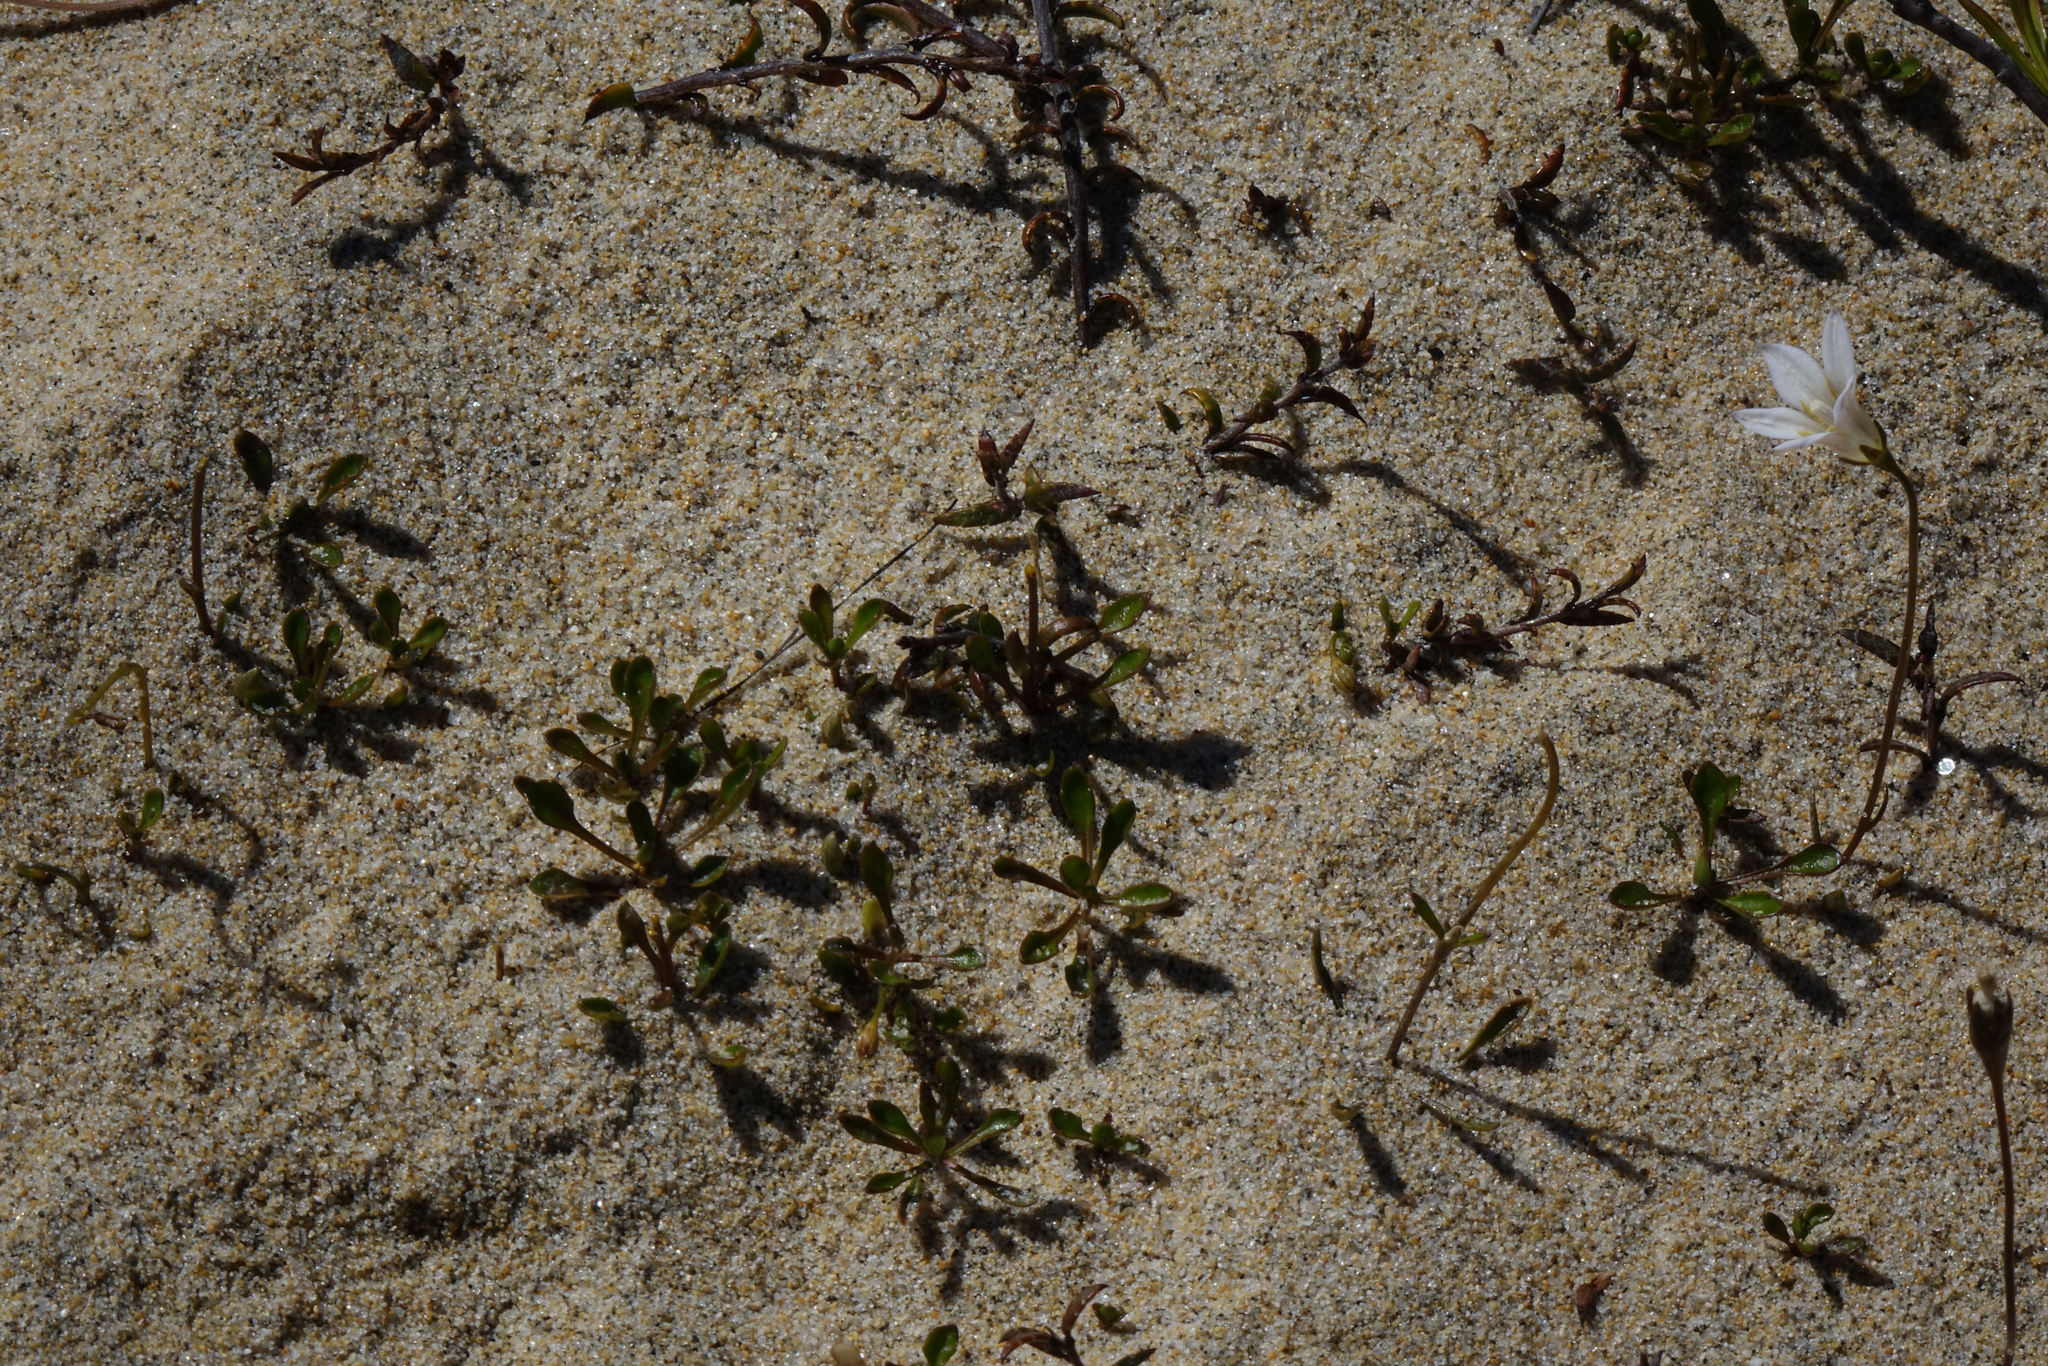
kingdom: Plantae
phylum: Tracheophyta
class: Magnoliopsida
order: Asterales
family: Campanulaceae
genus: Wahlenbergia
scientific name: Wahlenbergia albomarginata
